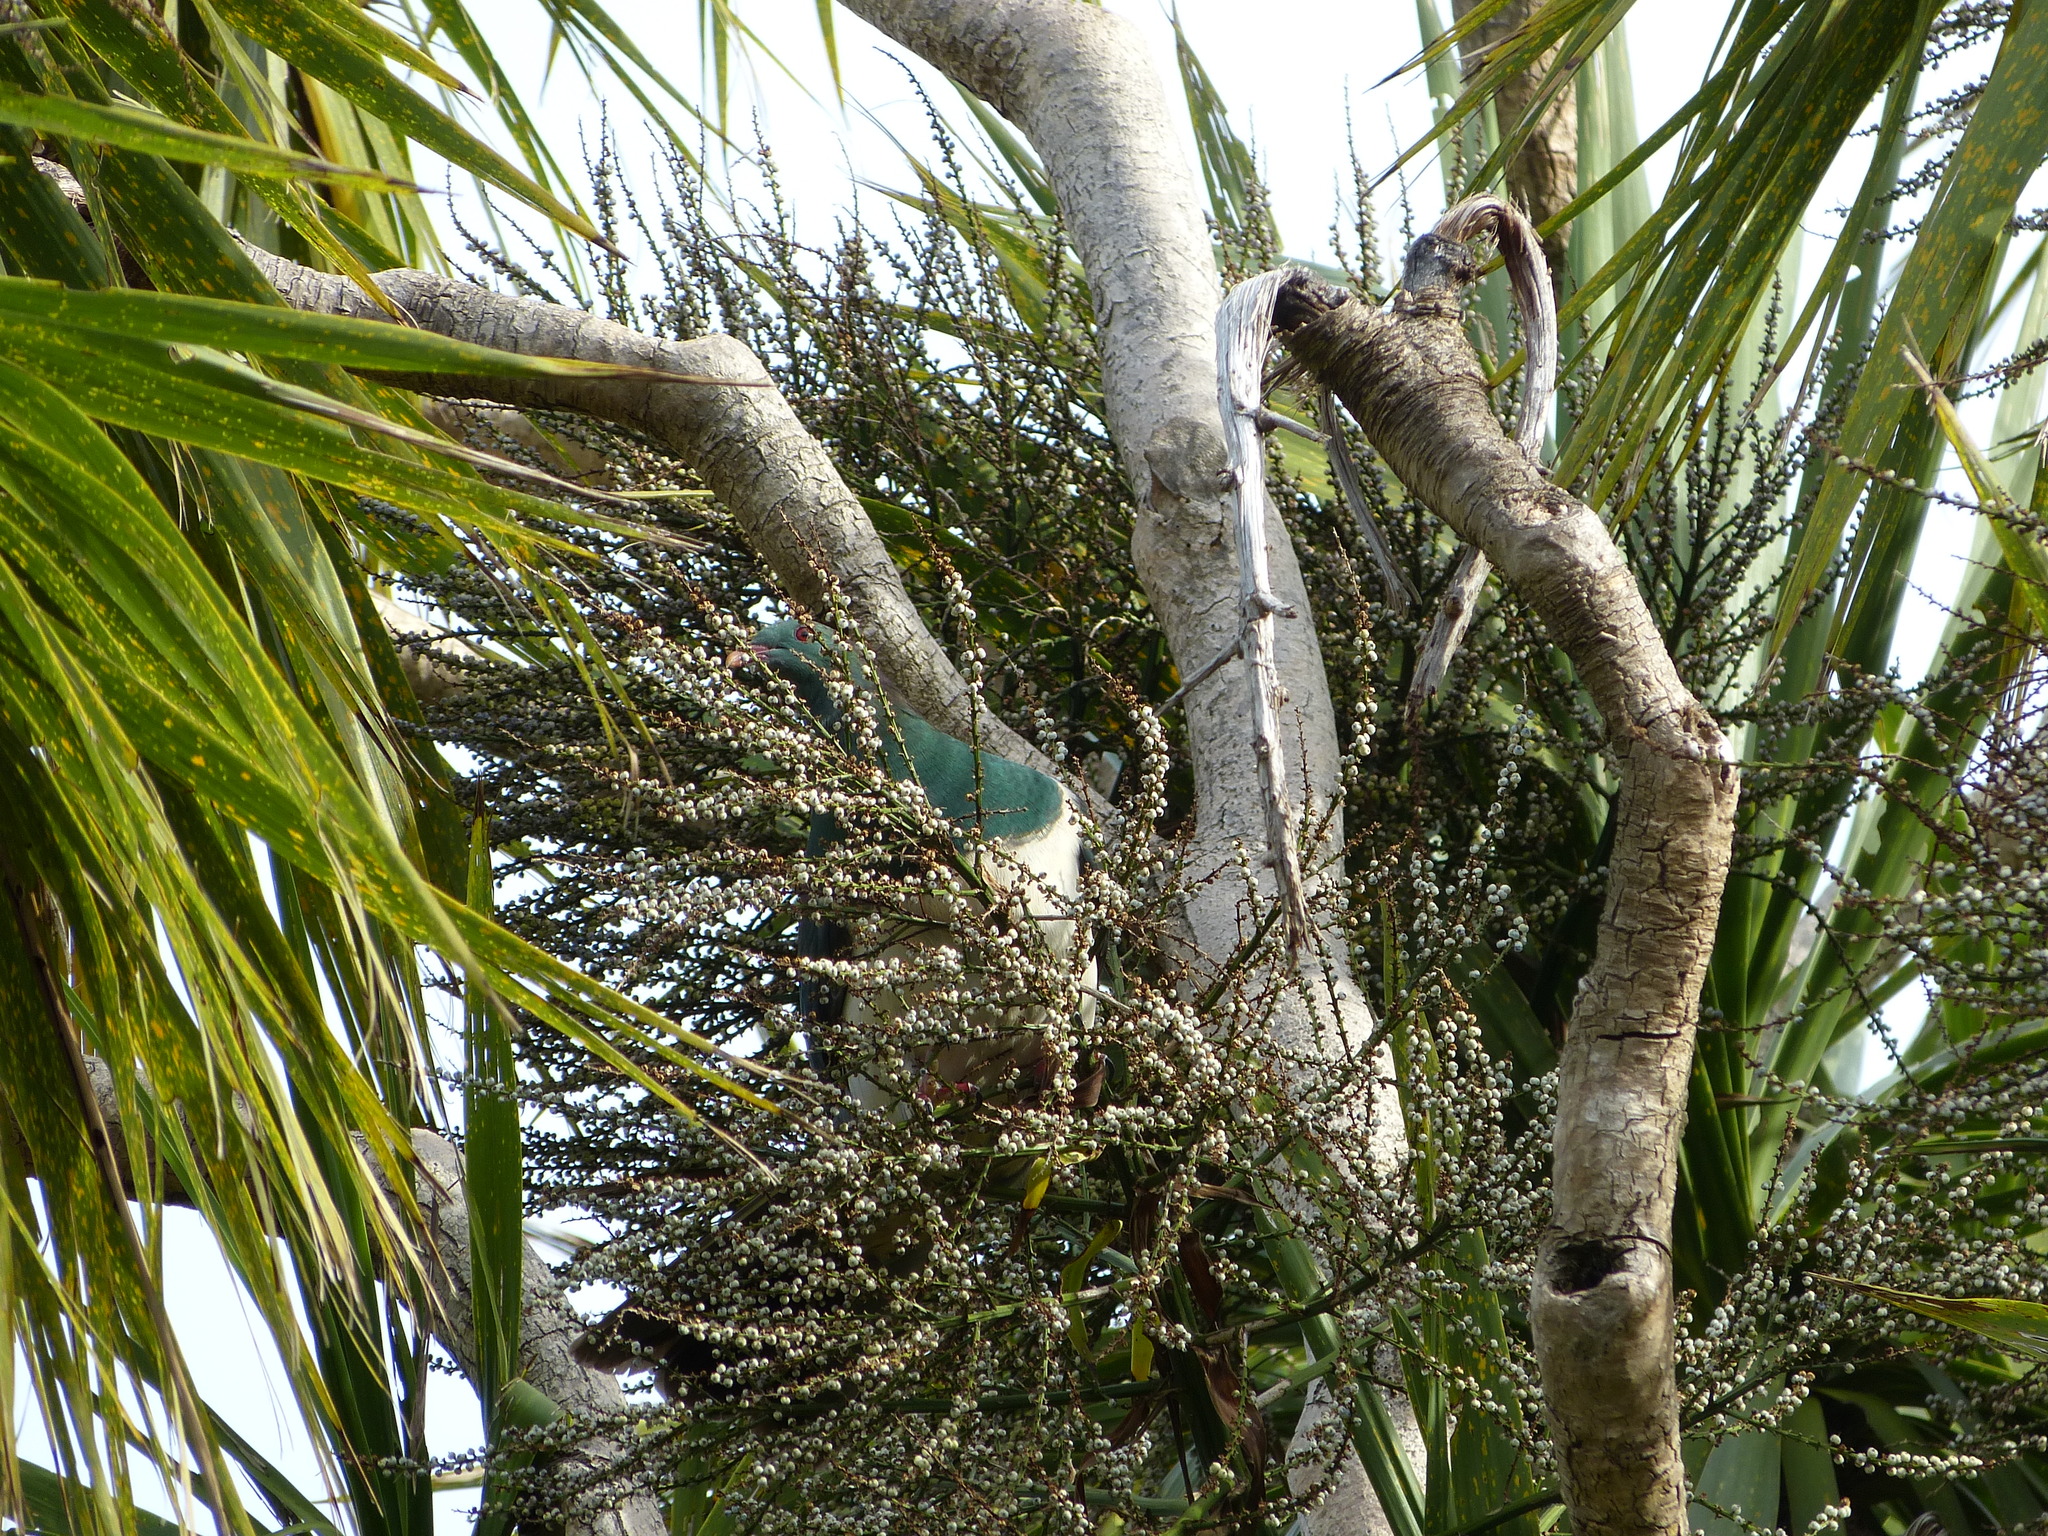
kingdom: Animalia
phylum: Chordata
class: Aves
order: Columbiformes
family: Columbidae
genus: Hemiphaga
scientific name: Hemiphaga novaeseelandiae
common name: New zealand pigeon
